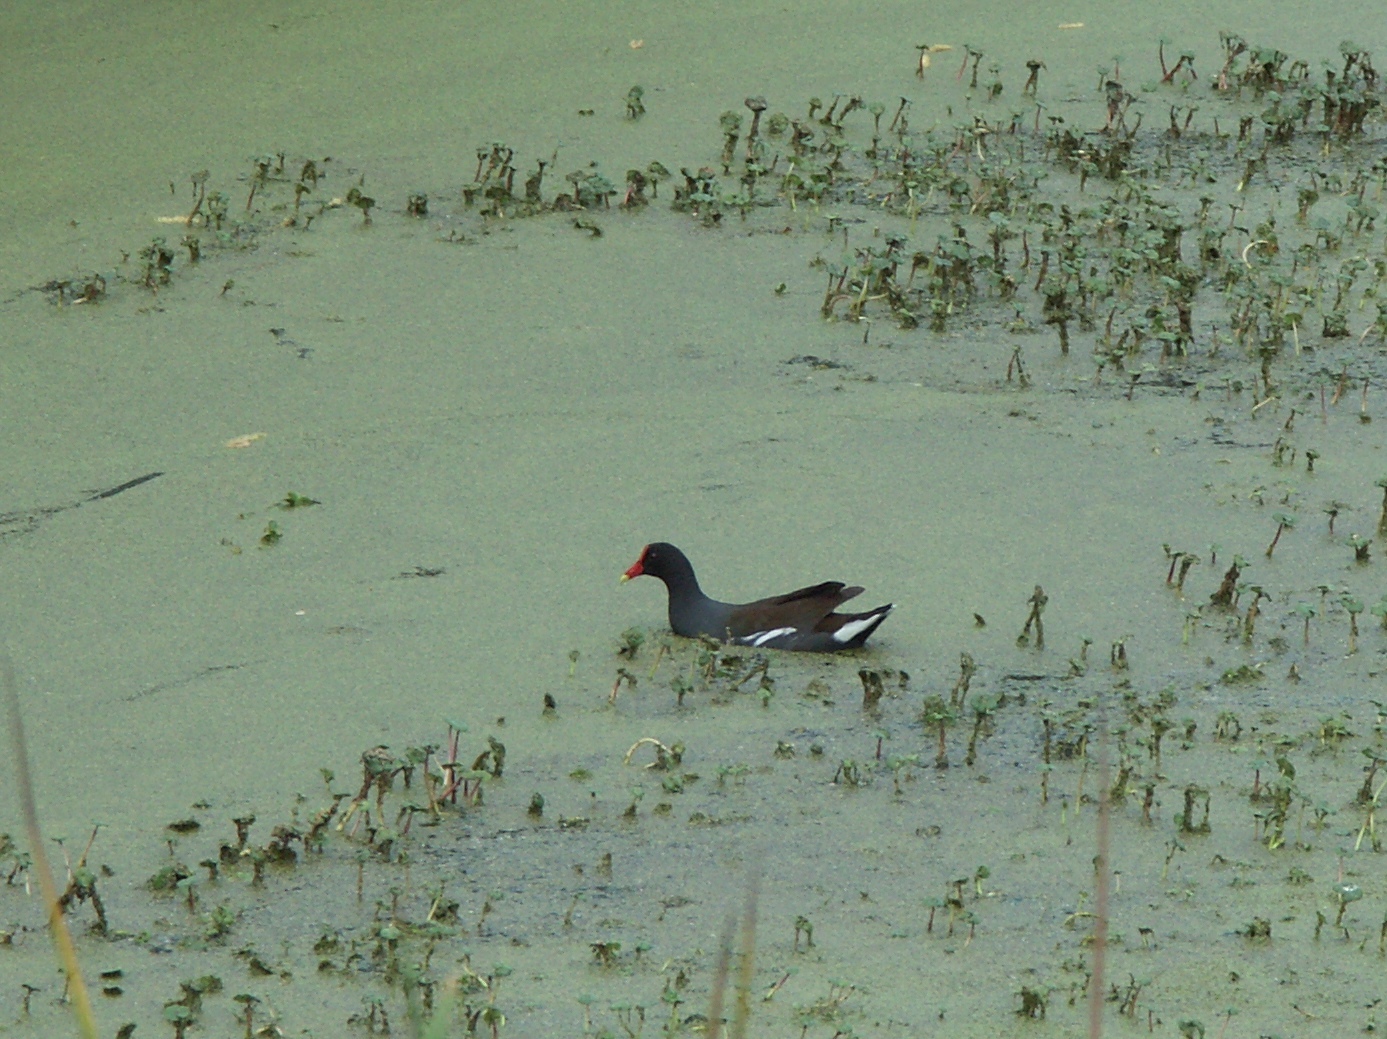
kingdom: Animalia
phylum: Chordata
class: Aves
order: Gruiformes
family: Rallidae
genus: Gallinula
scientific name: Gallinula chloropus
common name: Common moorhen
